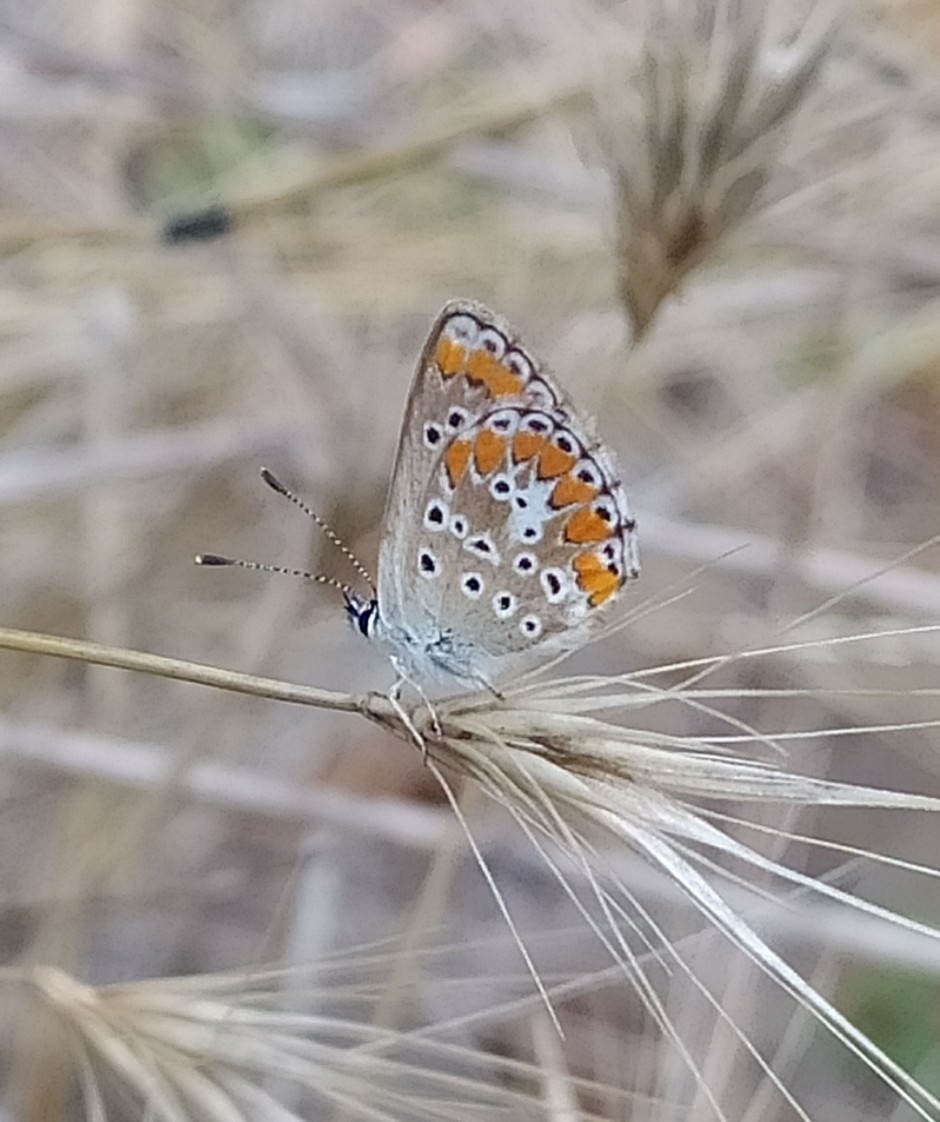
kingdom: Animalia
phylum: Arthropoda
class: Insecta
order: Lepidoptera
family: Lycaenidae
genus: Aricia
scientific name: Aricia agestis
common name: Brown argus
